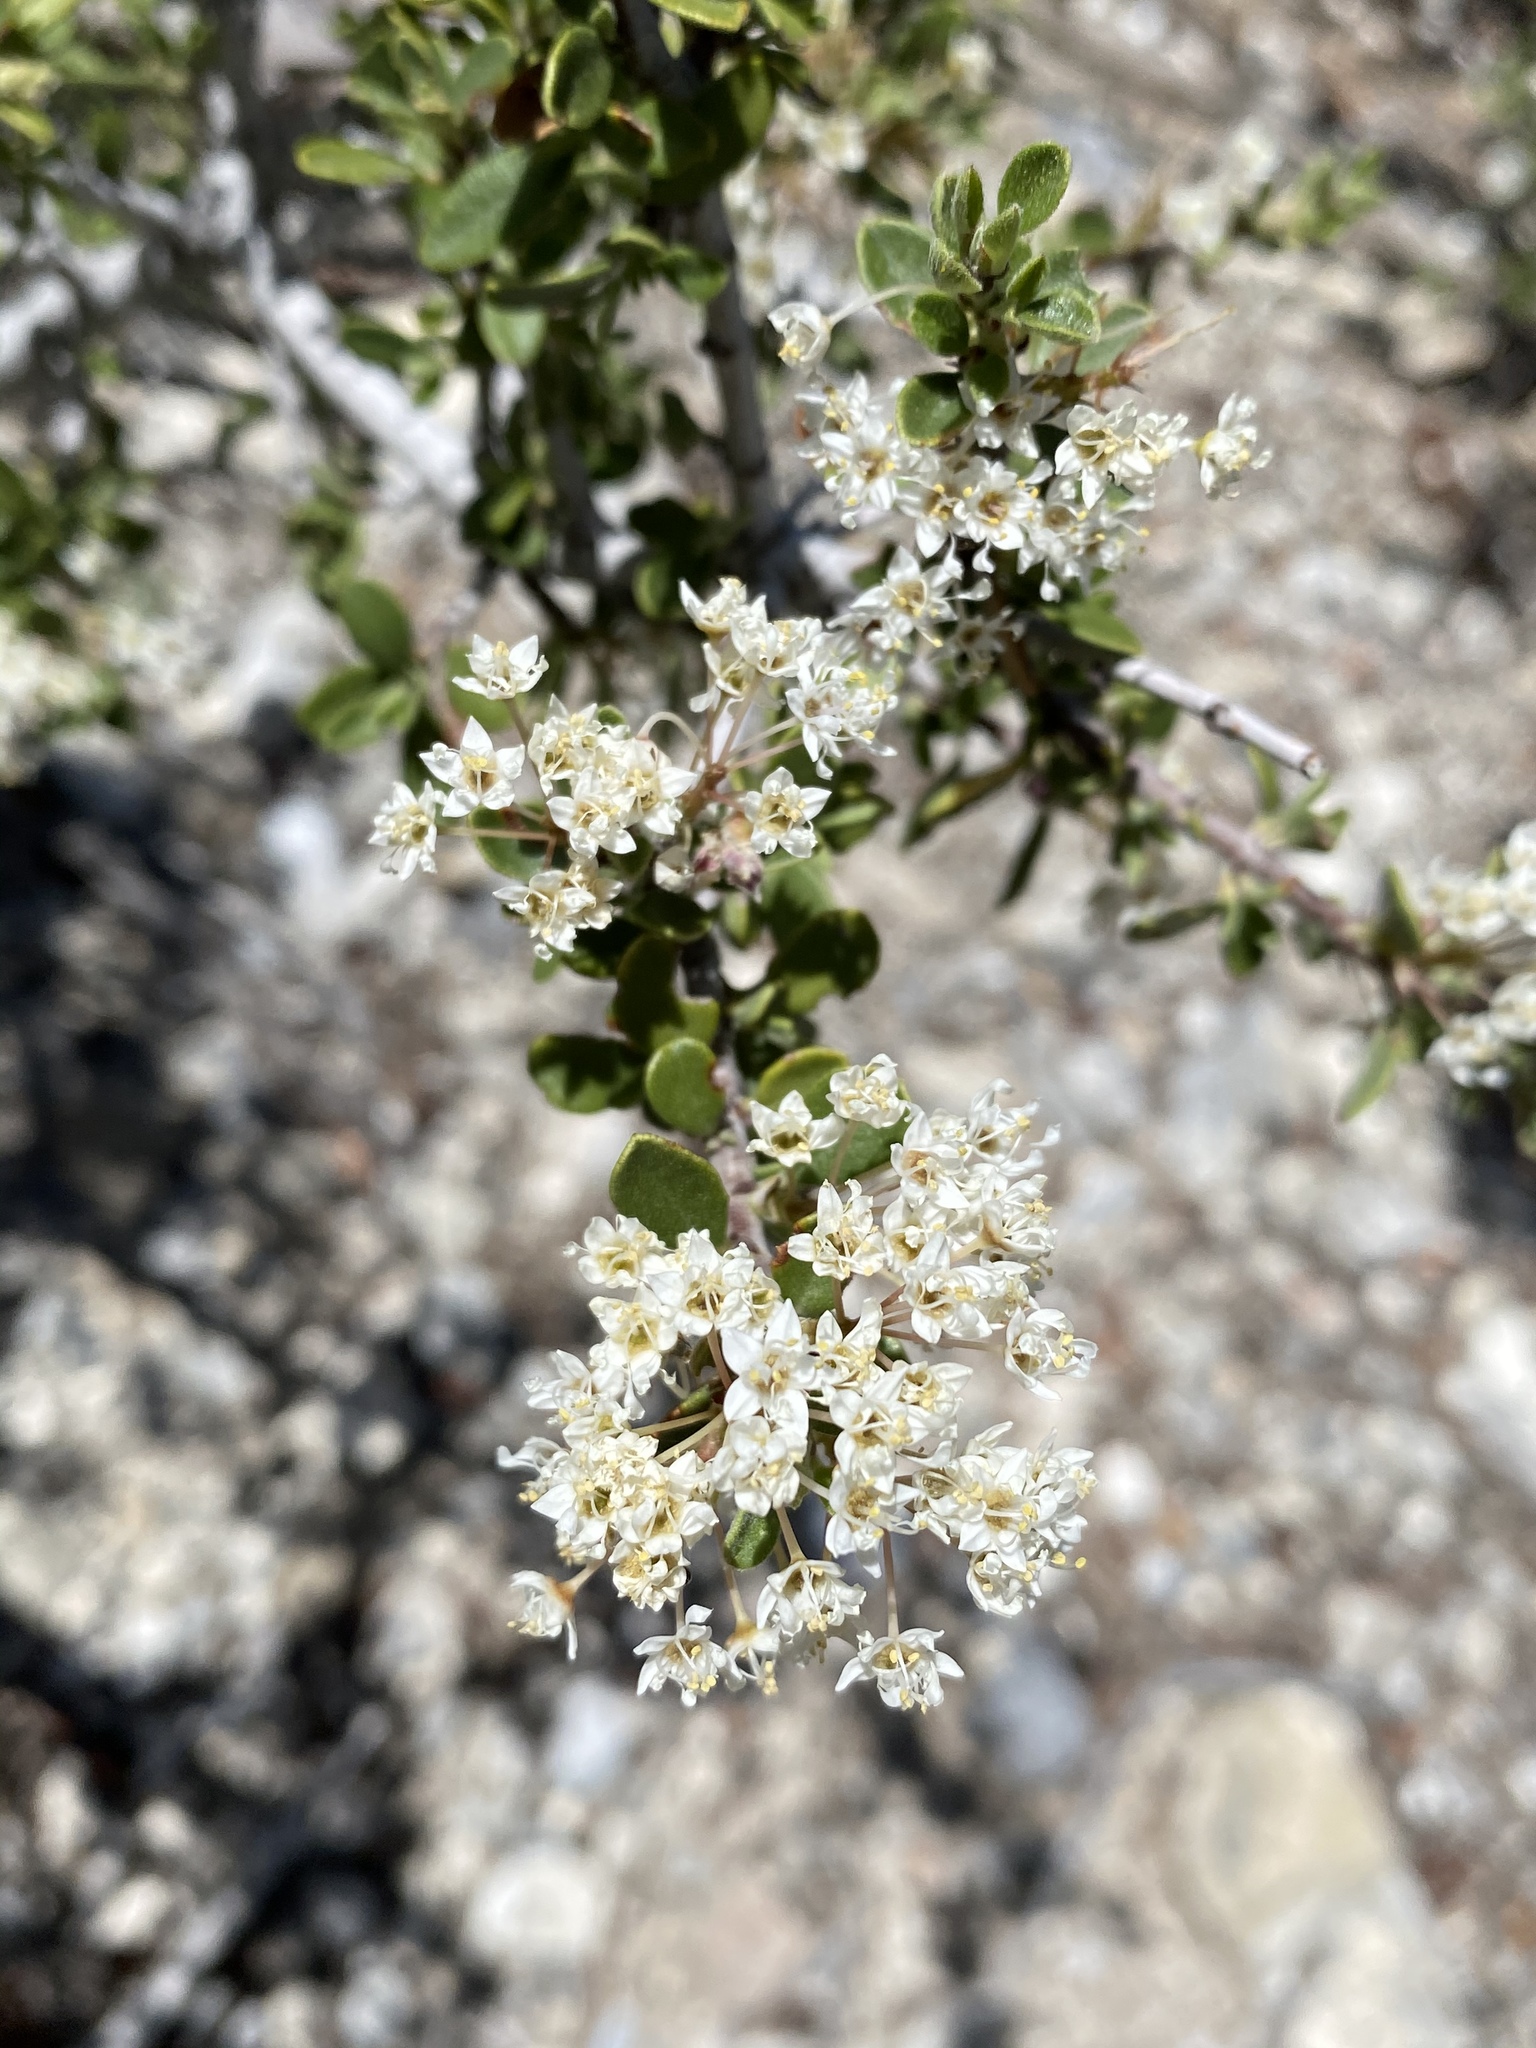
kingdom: Plantae
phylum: Tracheophyta
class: Magnoliopsida
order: Rosales
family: Rhamnaceae
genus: Ceanothus
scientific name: Ceanothus pauciflorus
